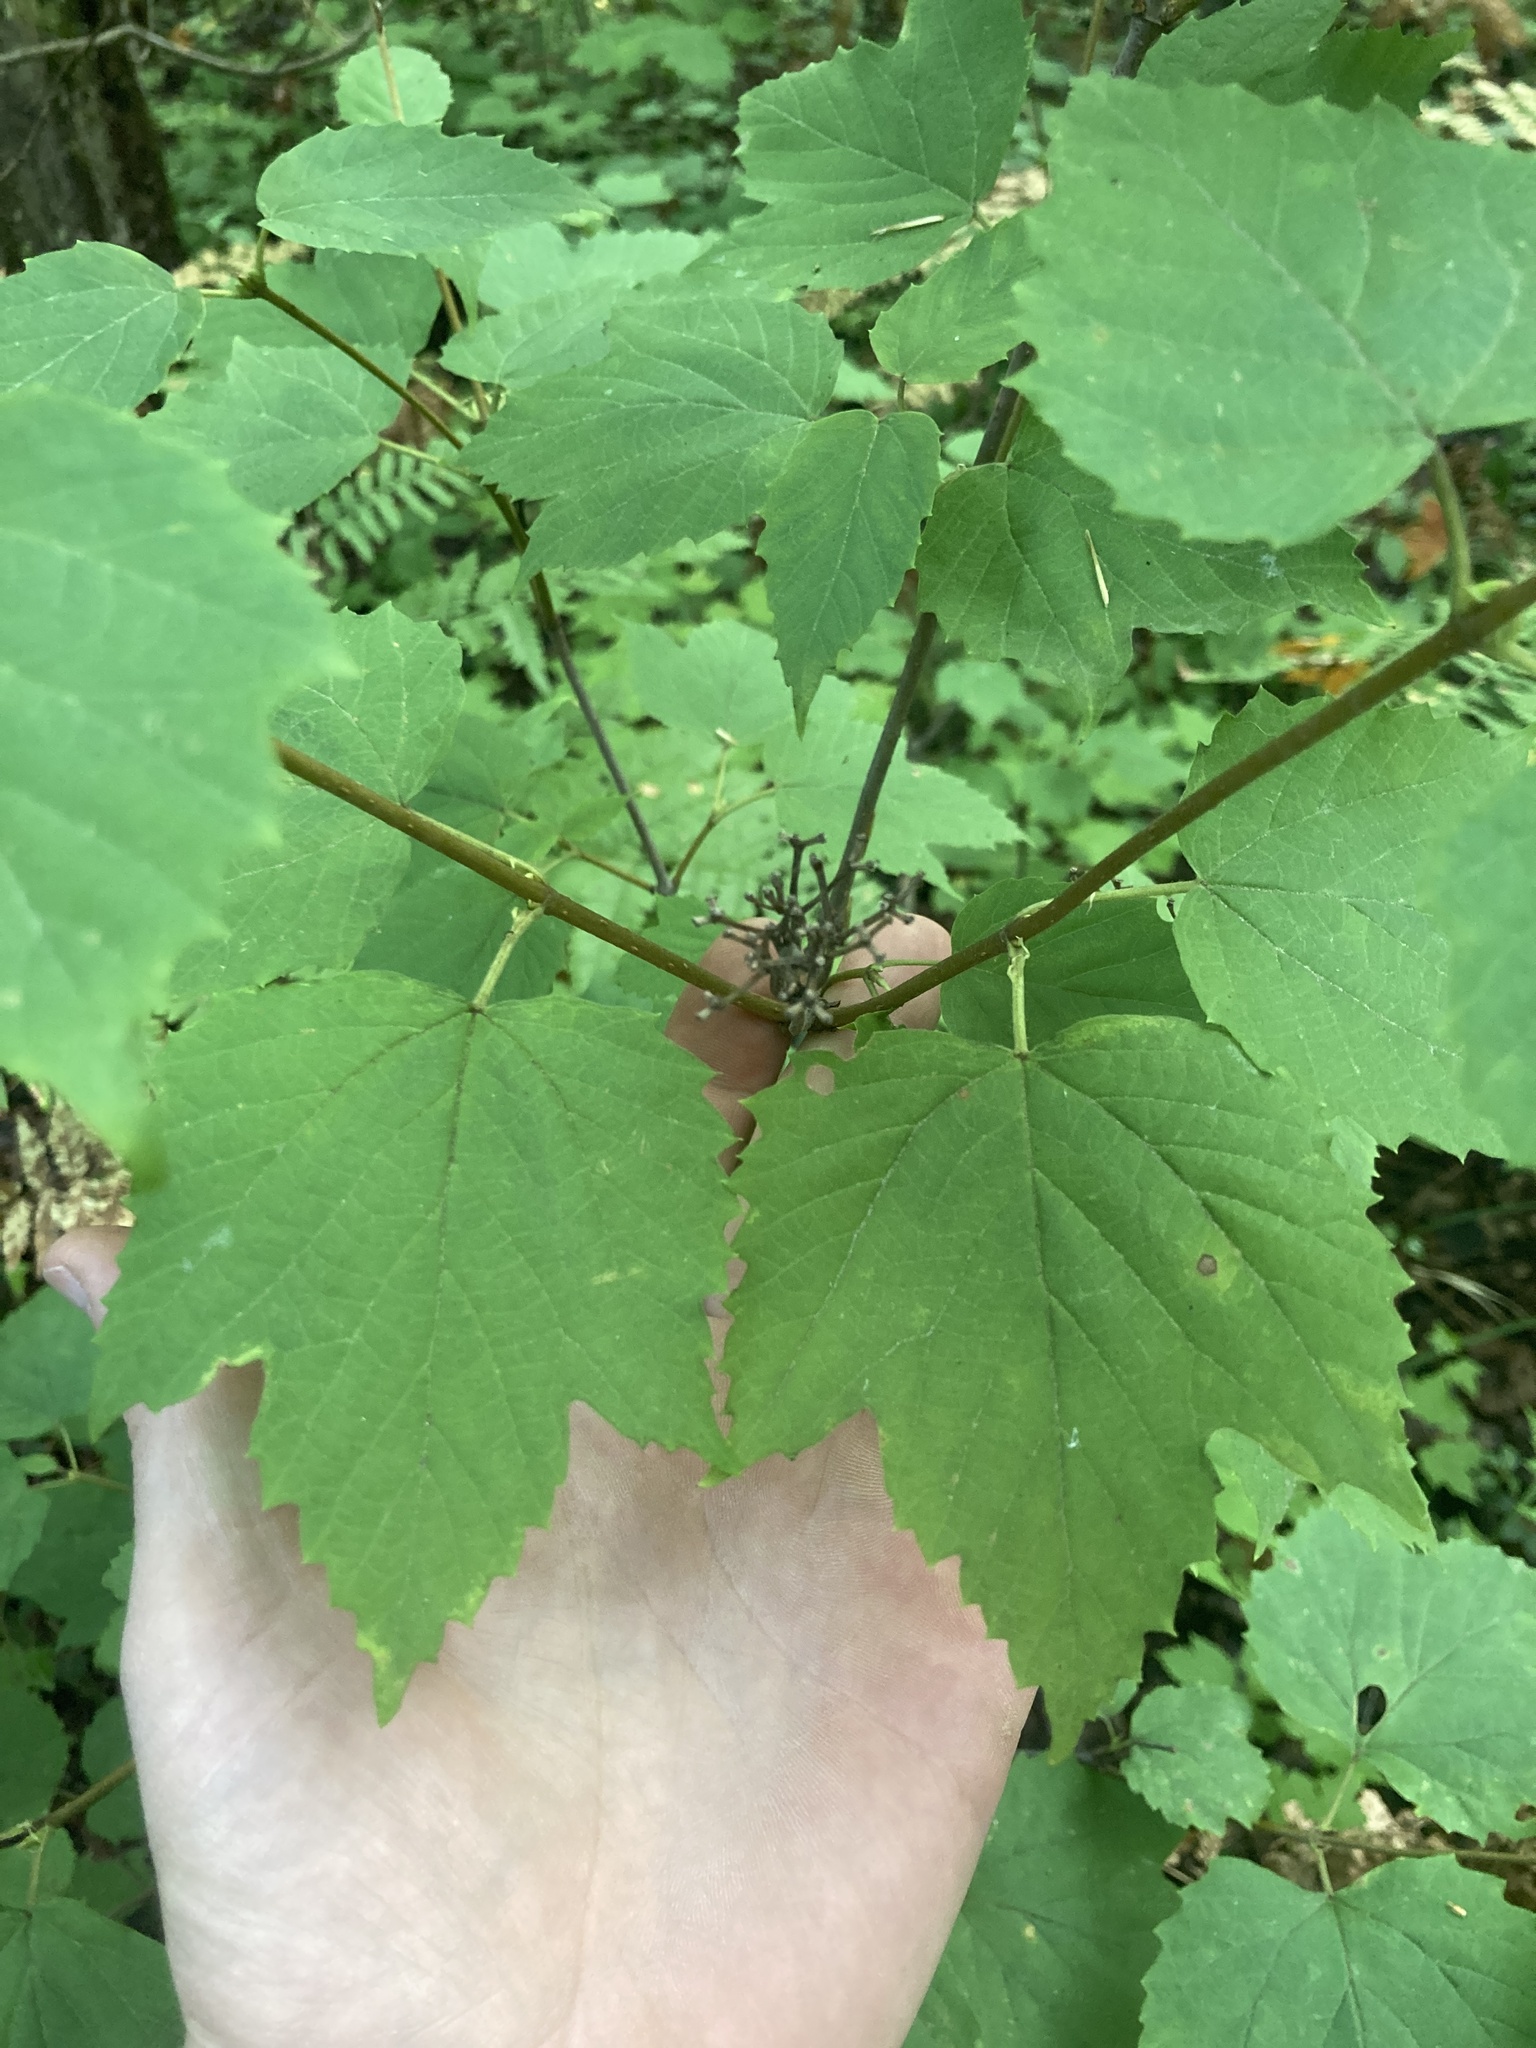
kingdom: Plantae
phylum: Tracheophyta
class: Magnoliopsida
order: Dipsacales
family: Viburnaceae
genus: Viburnum
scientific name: Viburnum acerifolium
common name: Dockmackie
